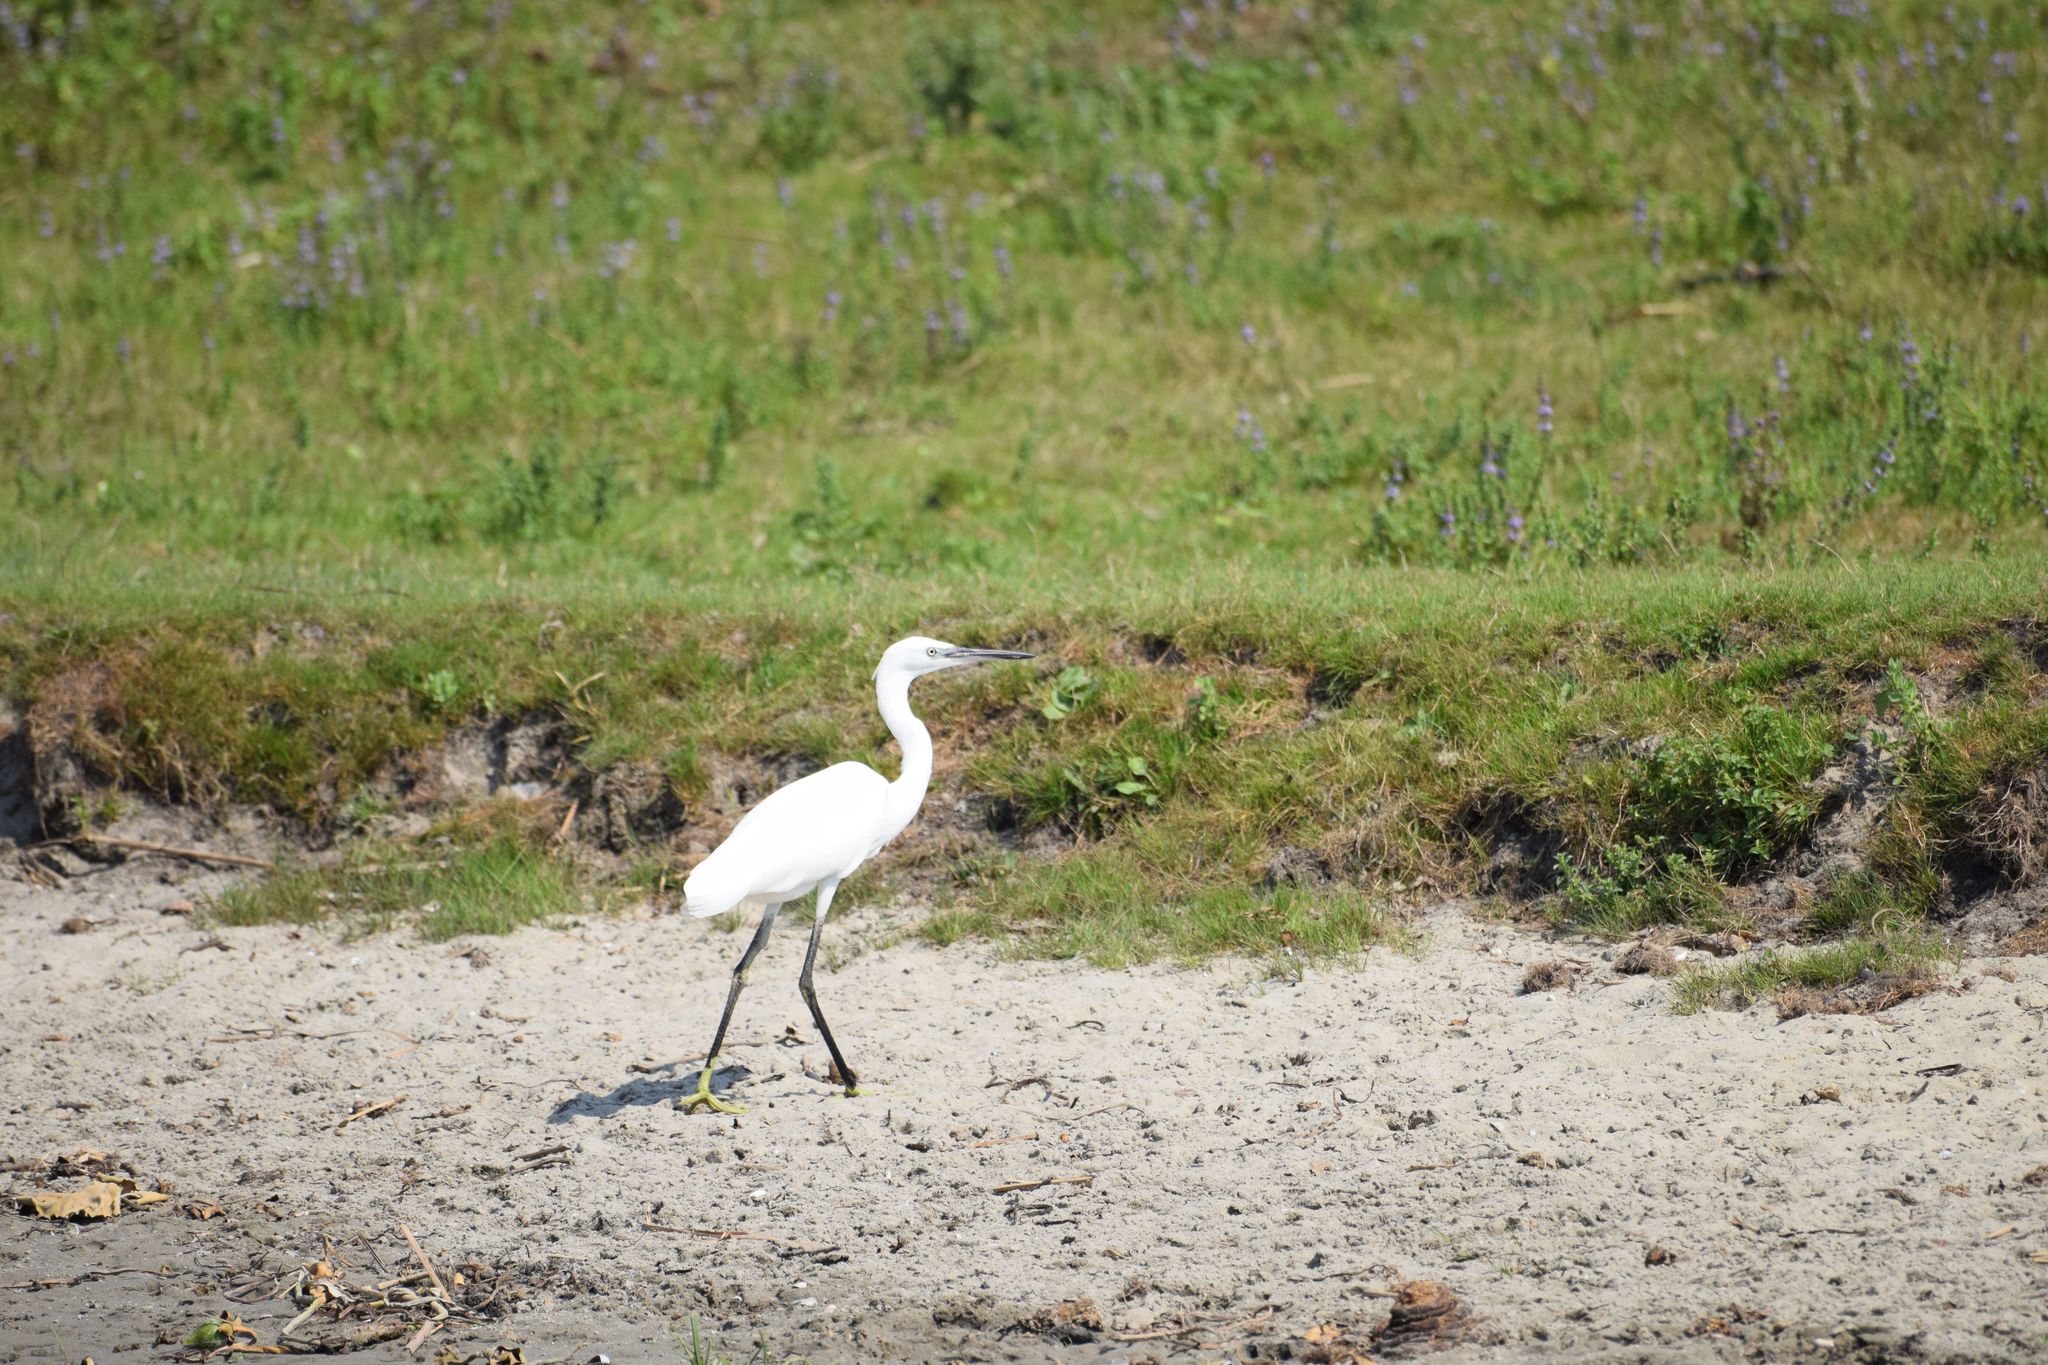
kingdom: Animalia
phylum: Chordata
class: Aves
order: Pelecaniformes
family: Ardeidae
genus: Egretta
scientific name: Egretta garzetta
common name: Little egret
